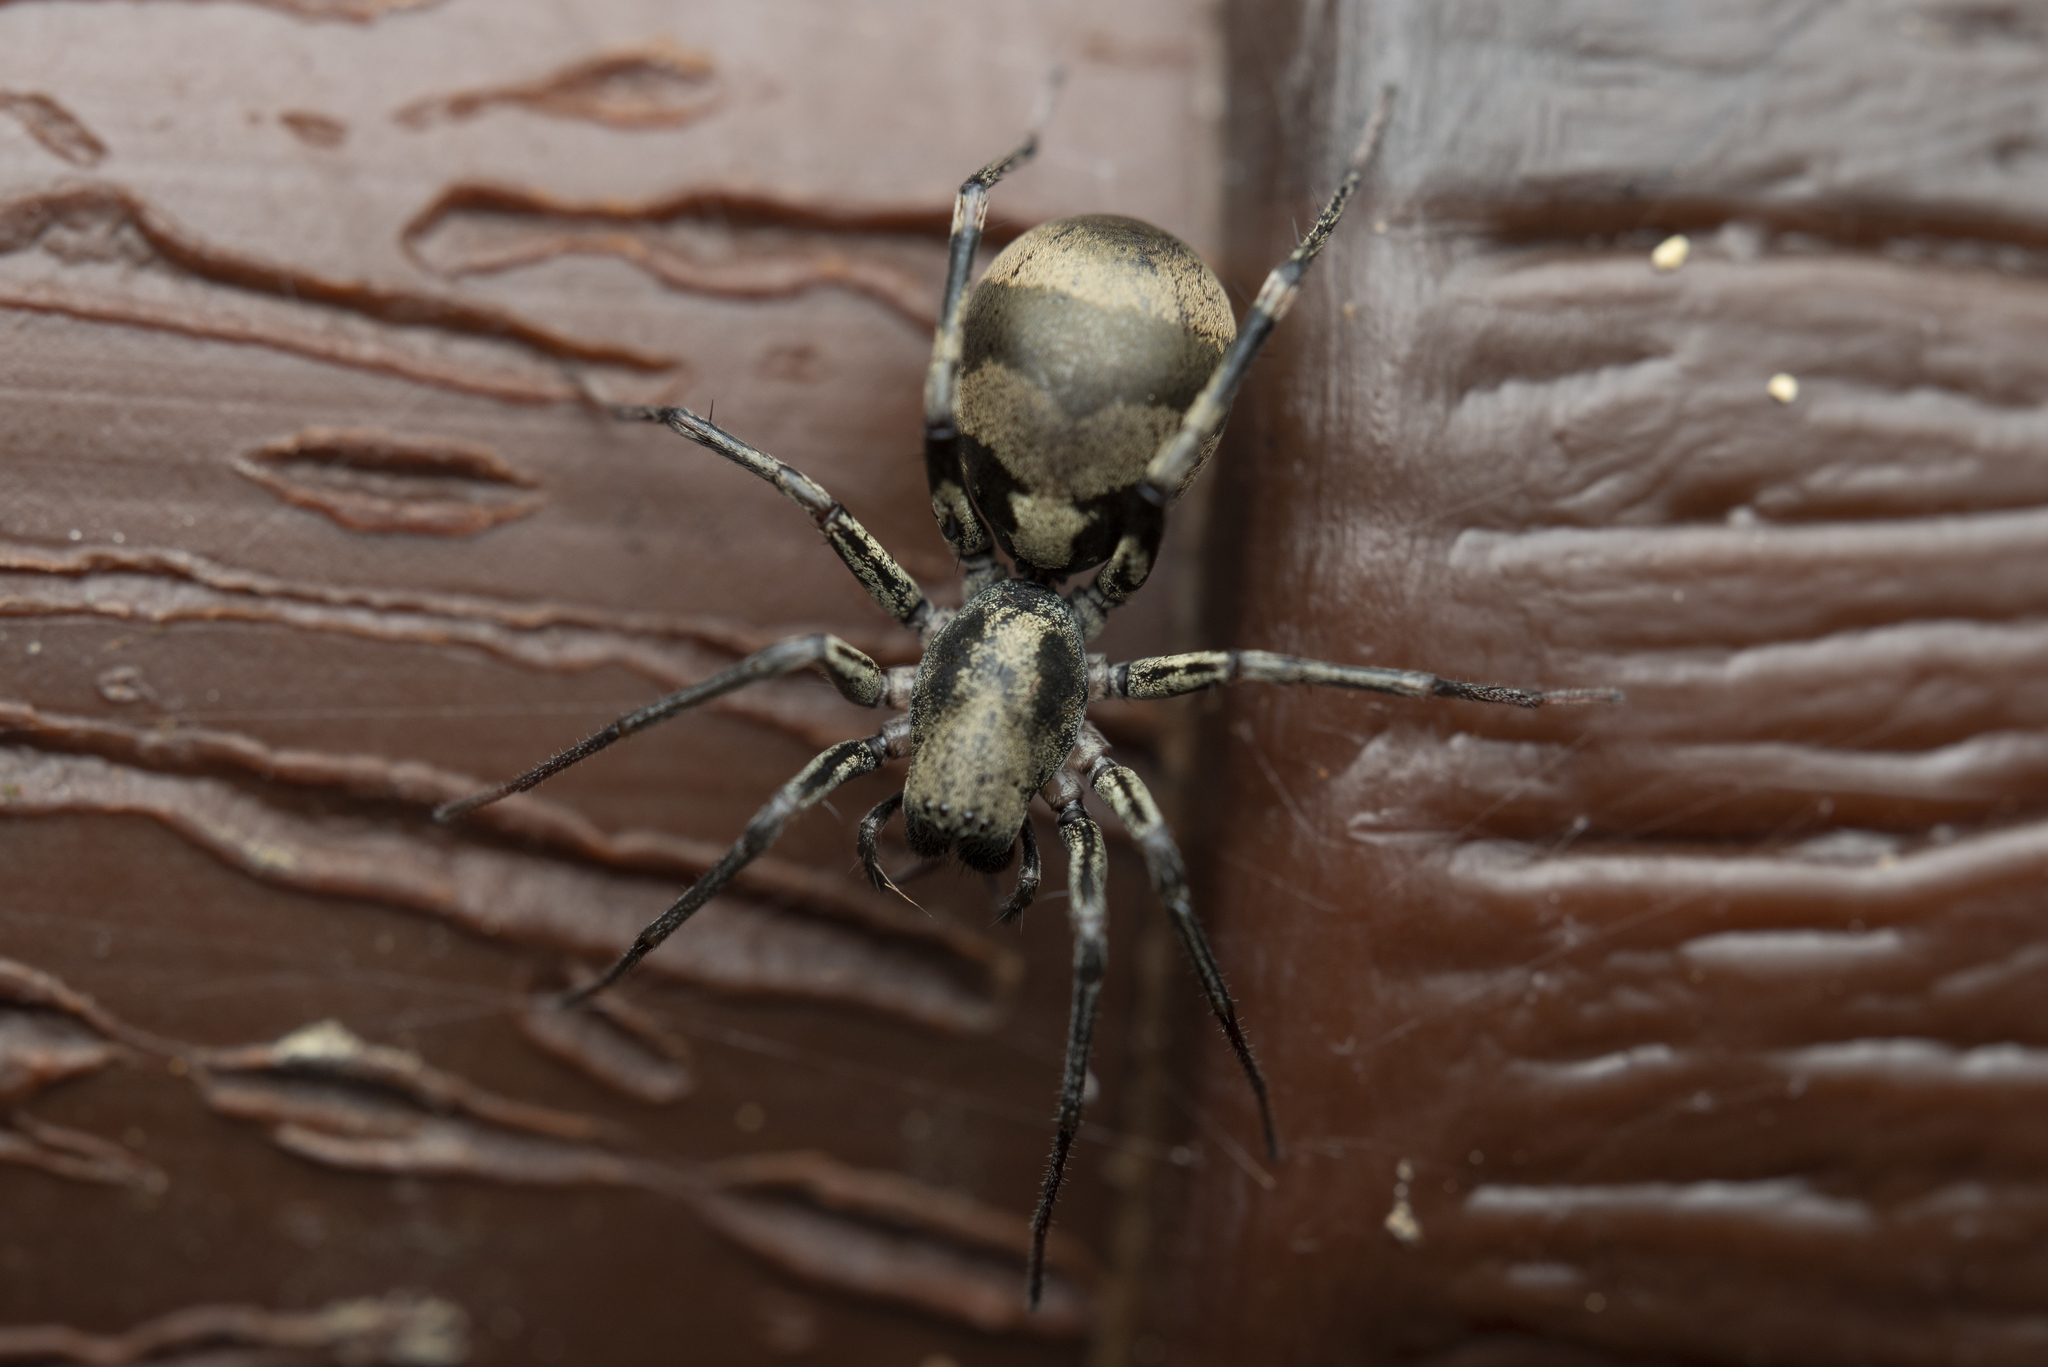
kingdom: Animalia
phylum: Arthropoda
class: Arachnida
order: Araneae
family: Corinnidae
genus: Corinnomma
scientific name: Corinnomma severum
